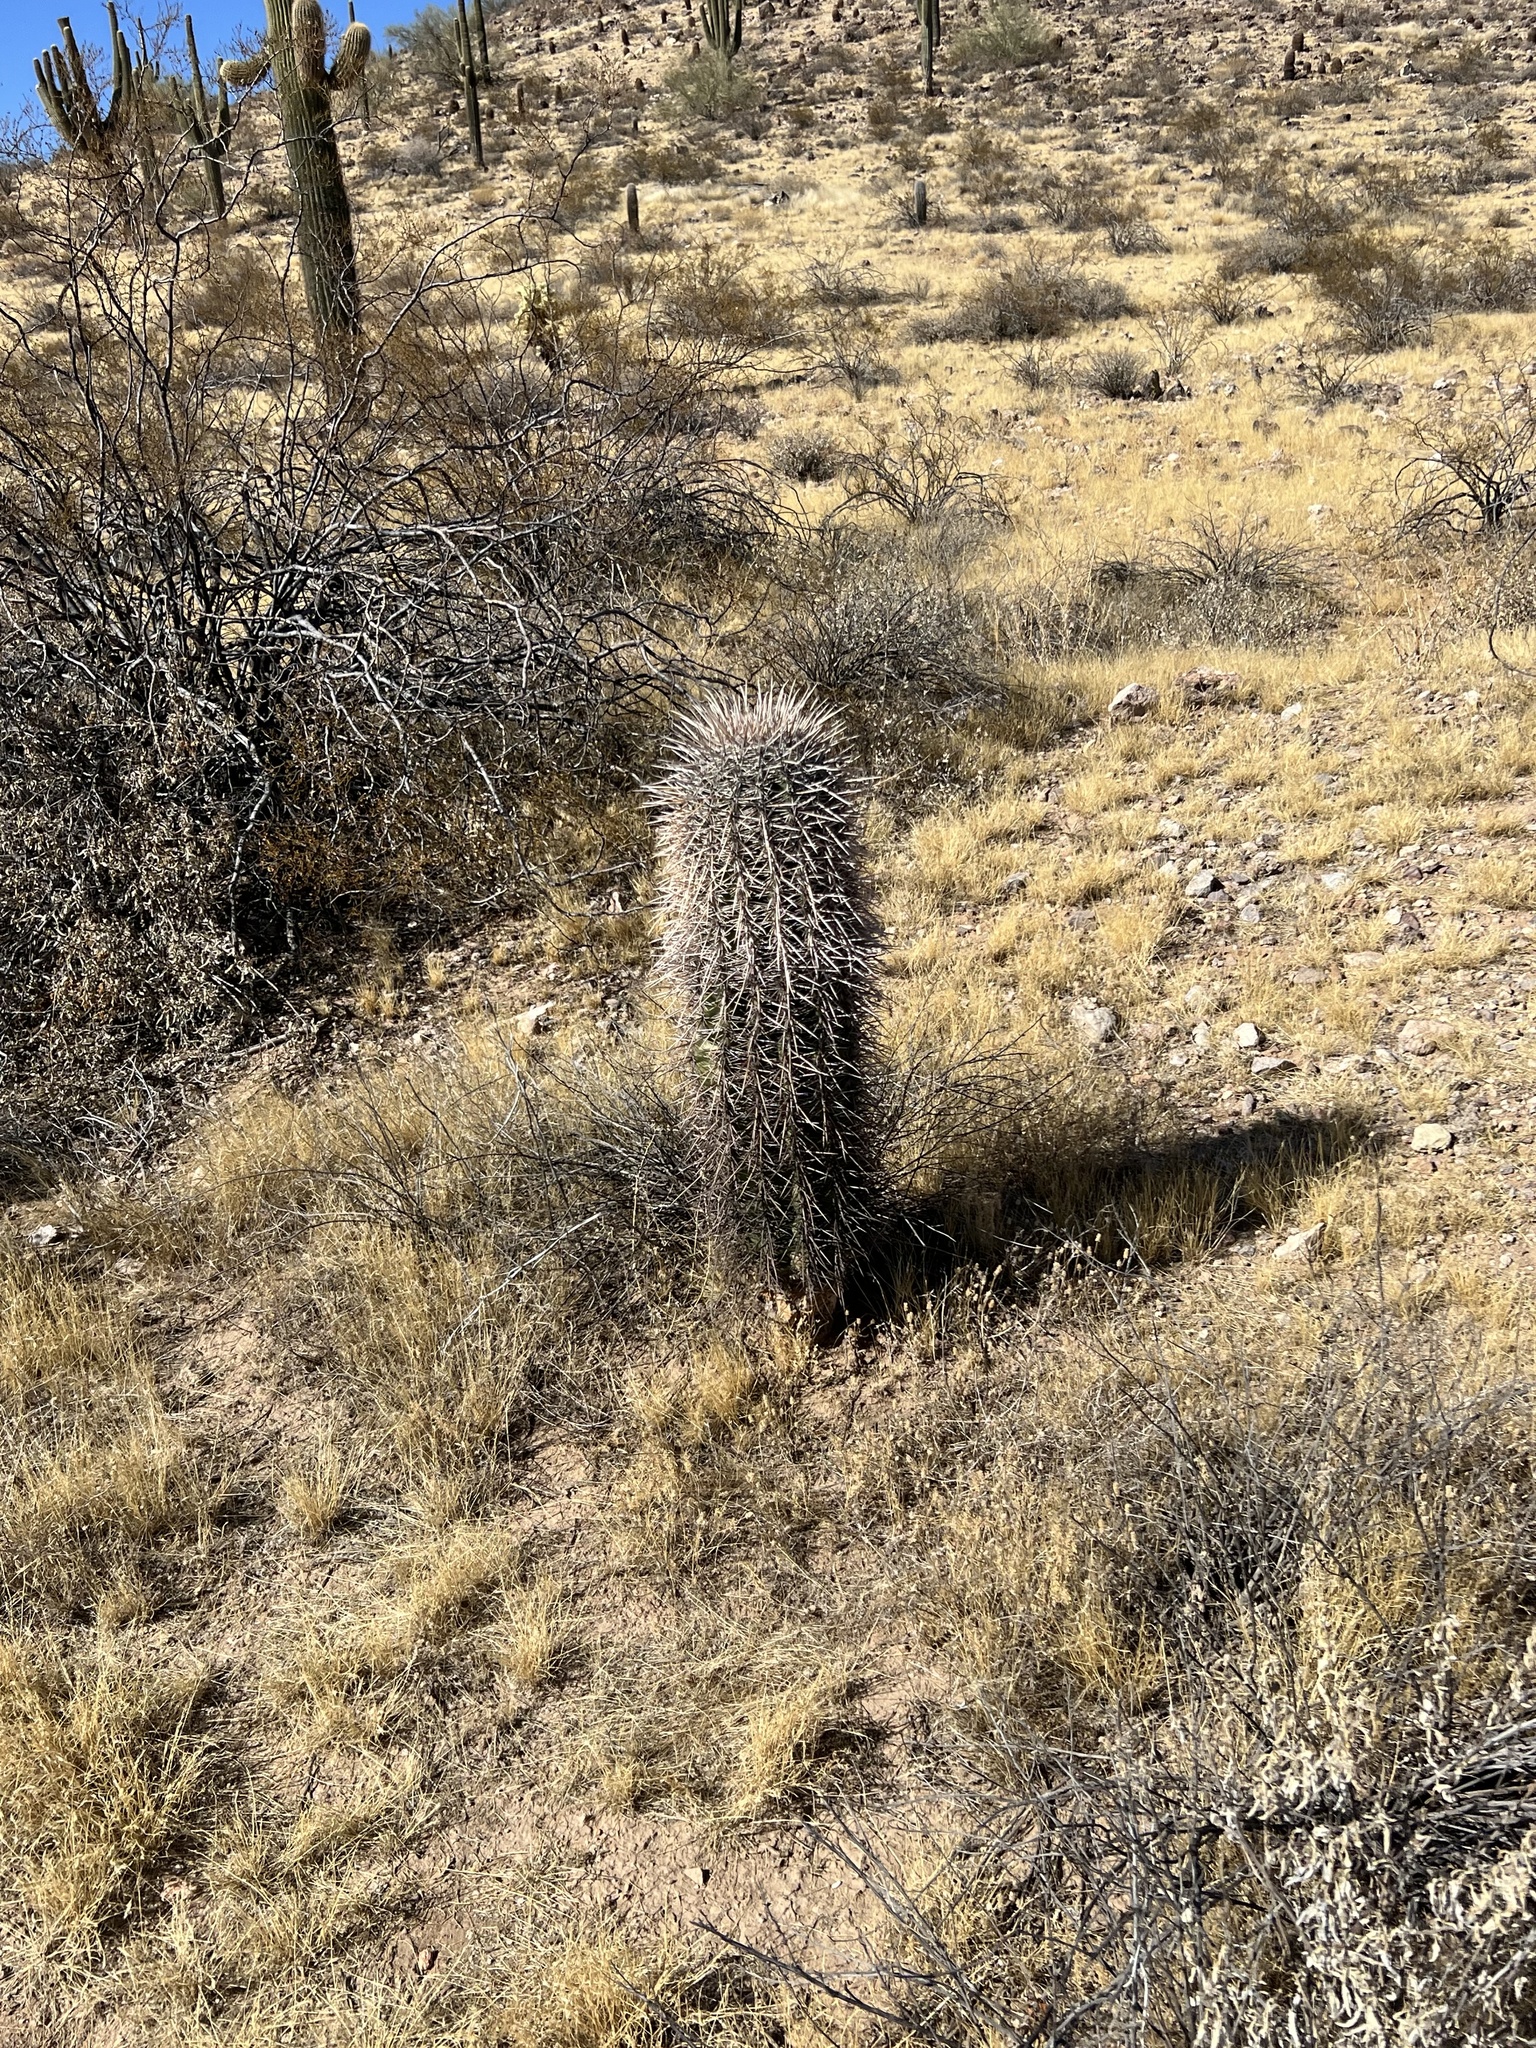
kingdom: Plantae
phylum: Tracheophyta
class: Magnoliopsida
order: Caryophyllales
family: Cactaceae
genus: Carnegiea
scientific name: Carnegiea gigantea
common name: Saguaro
